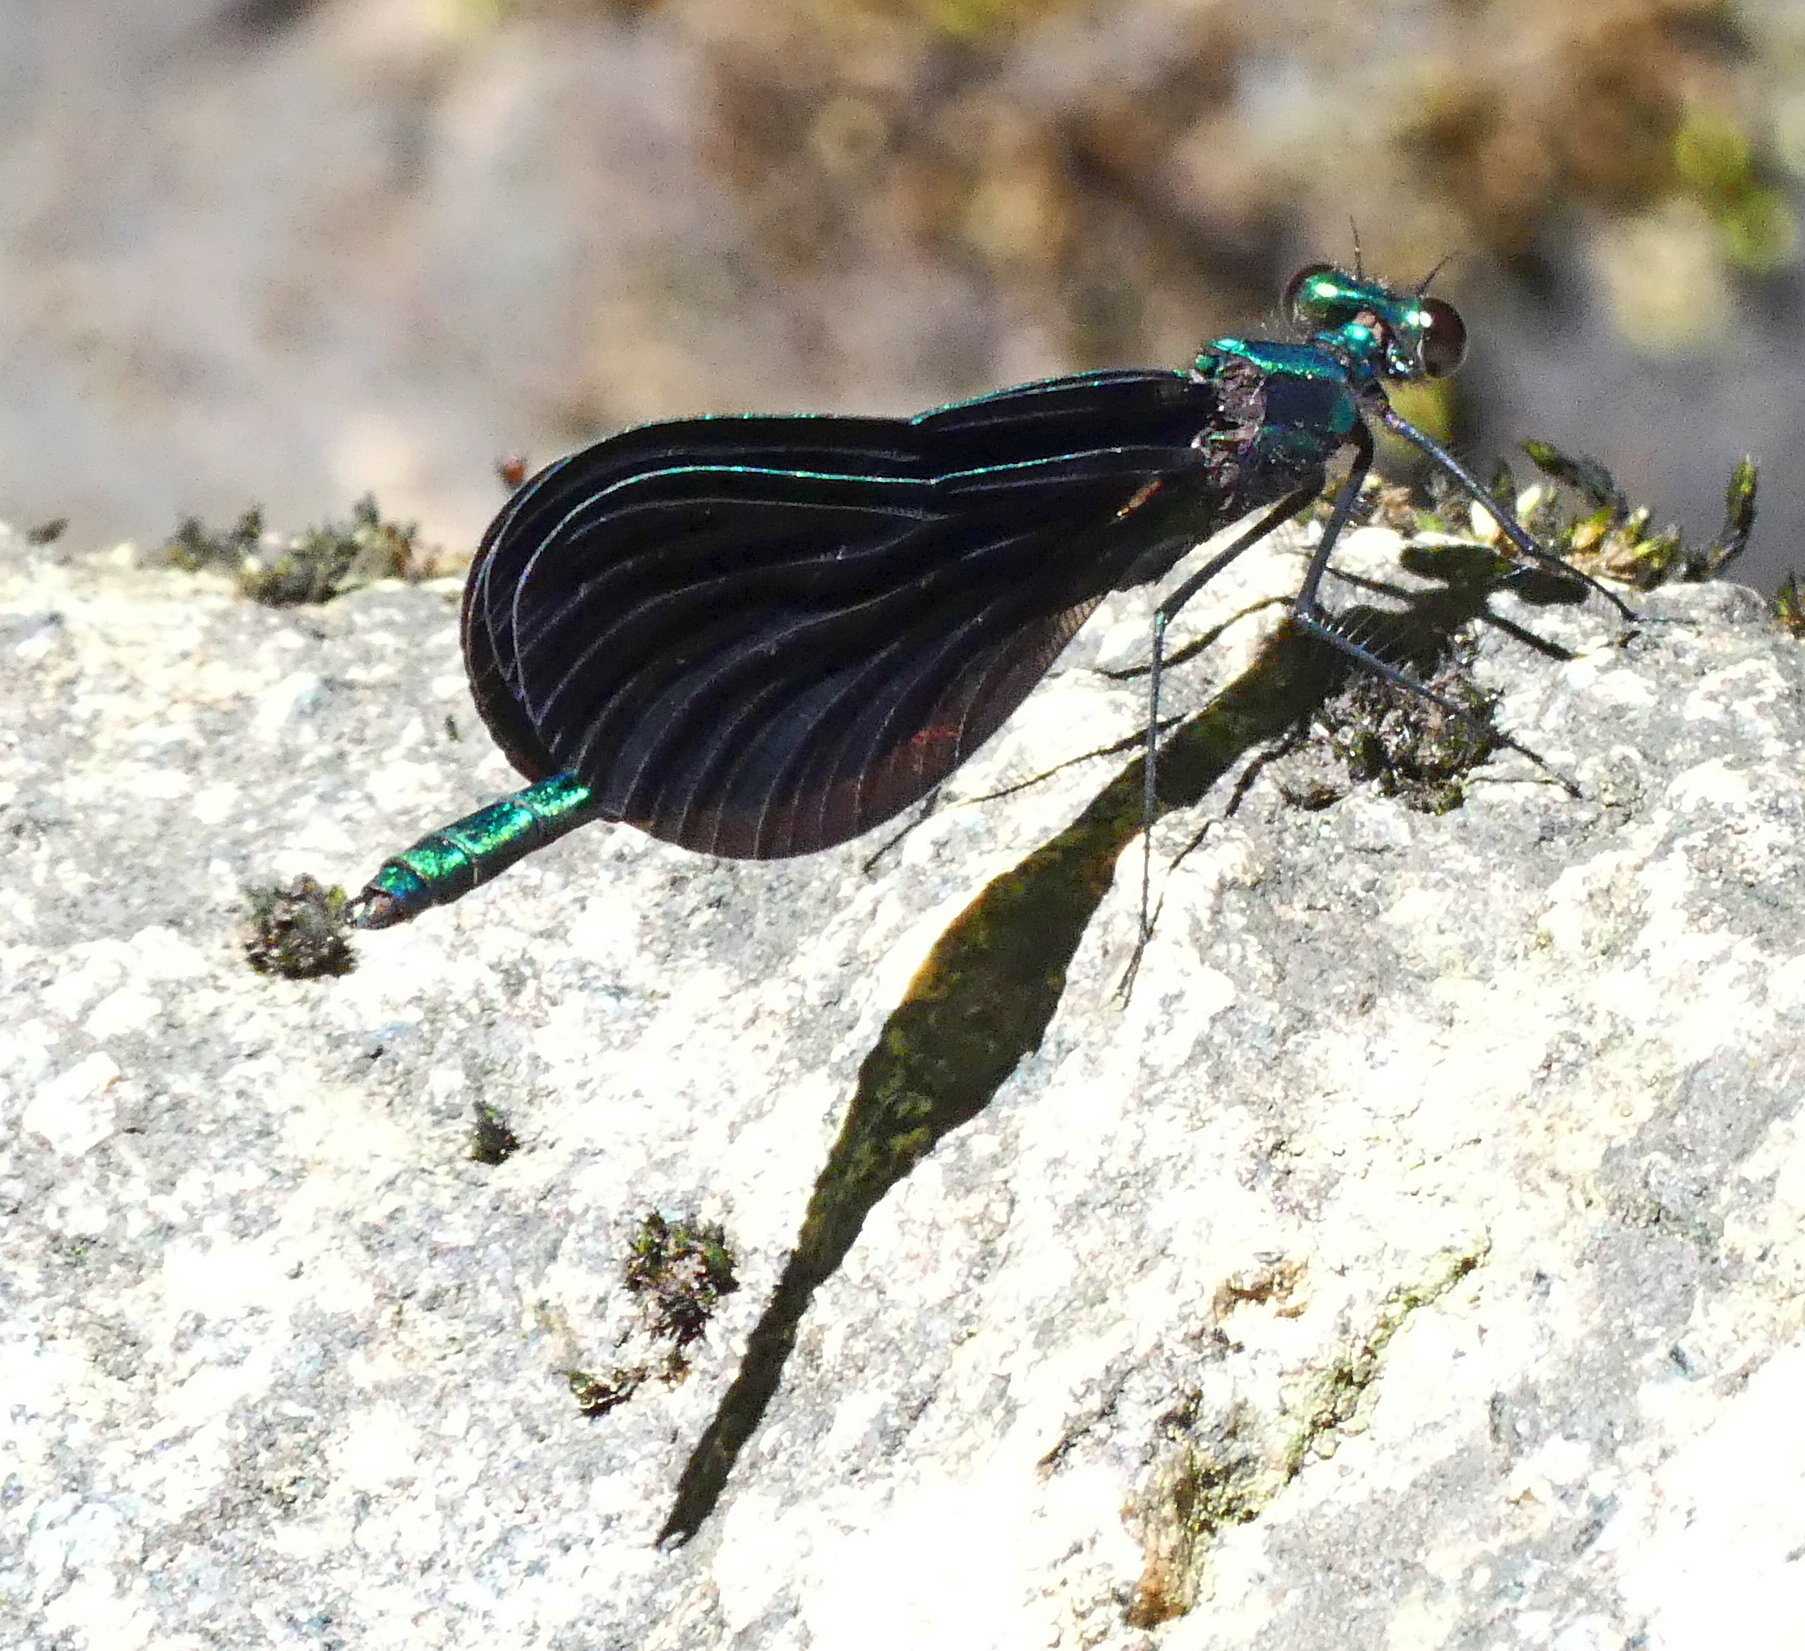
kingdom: Animalia
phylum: Arthropoda
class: Insecta
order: Odonata
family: Calopterygidae
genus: Calopteryx
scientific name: Calopteryx maculata
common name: Ebony jewelwing
